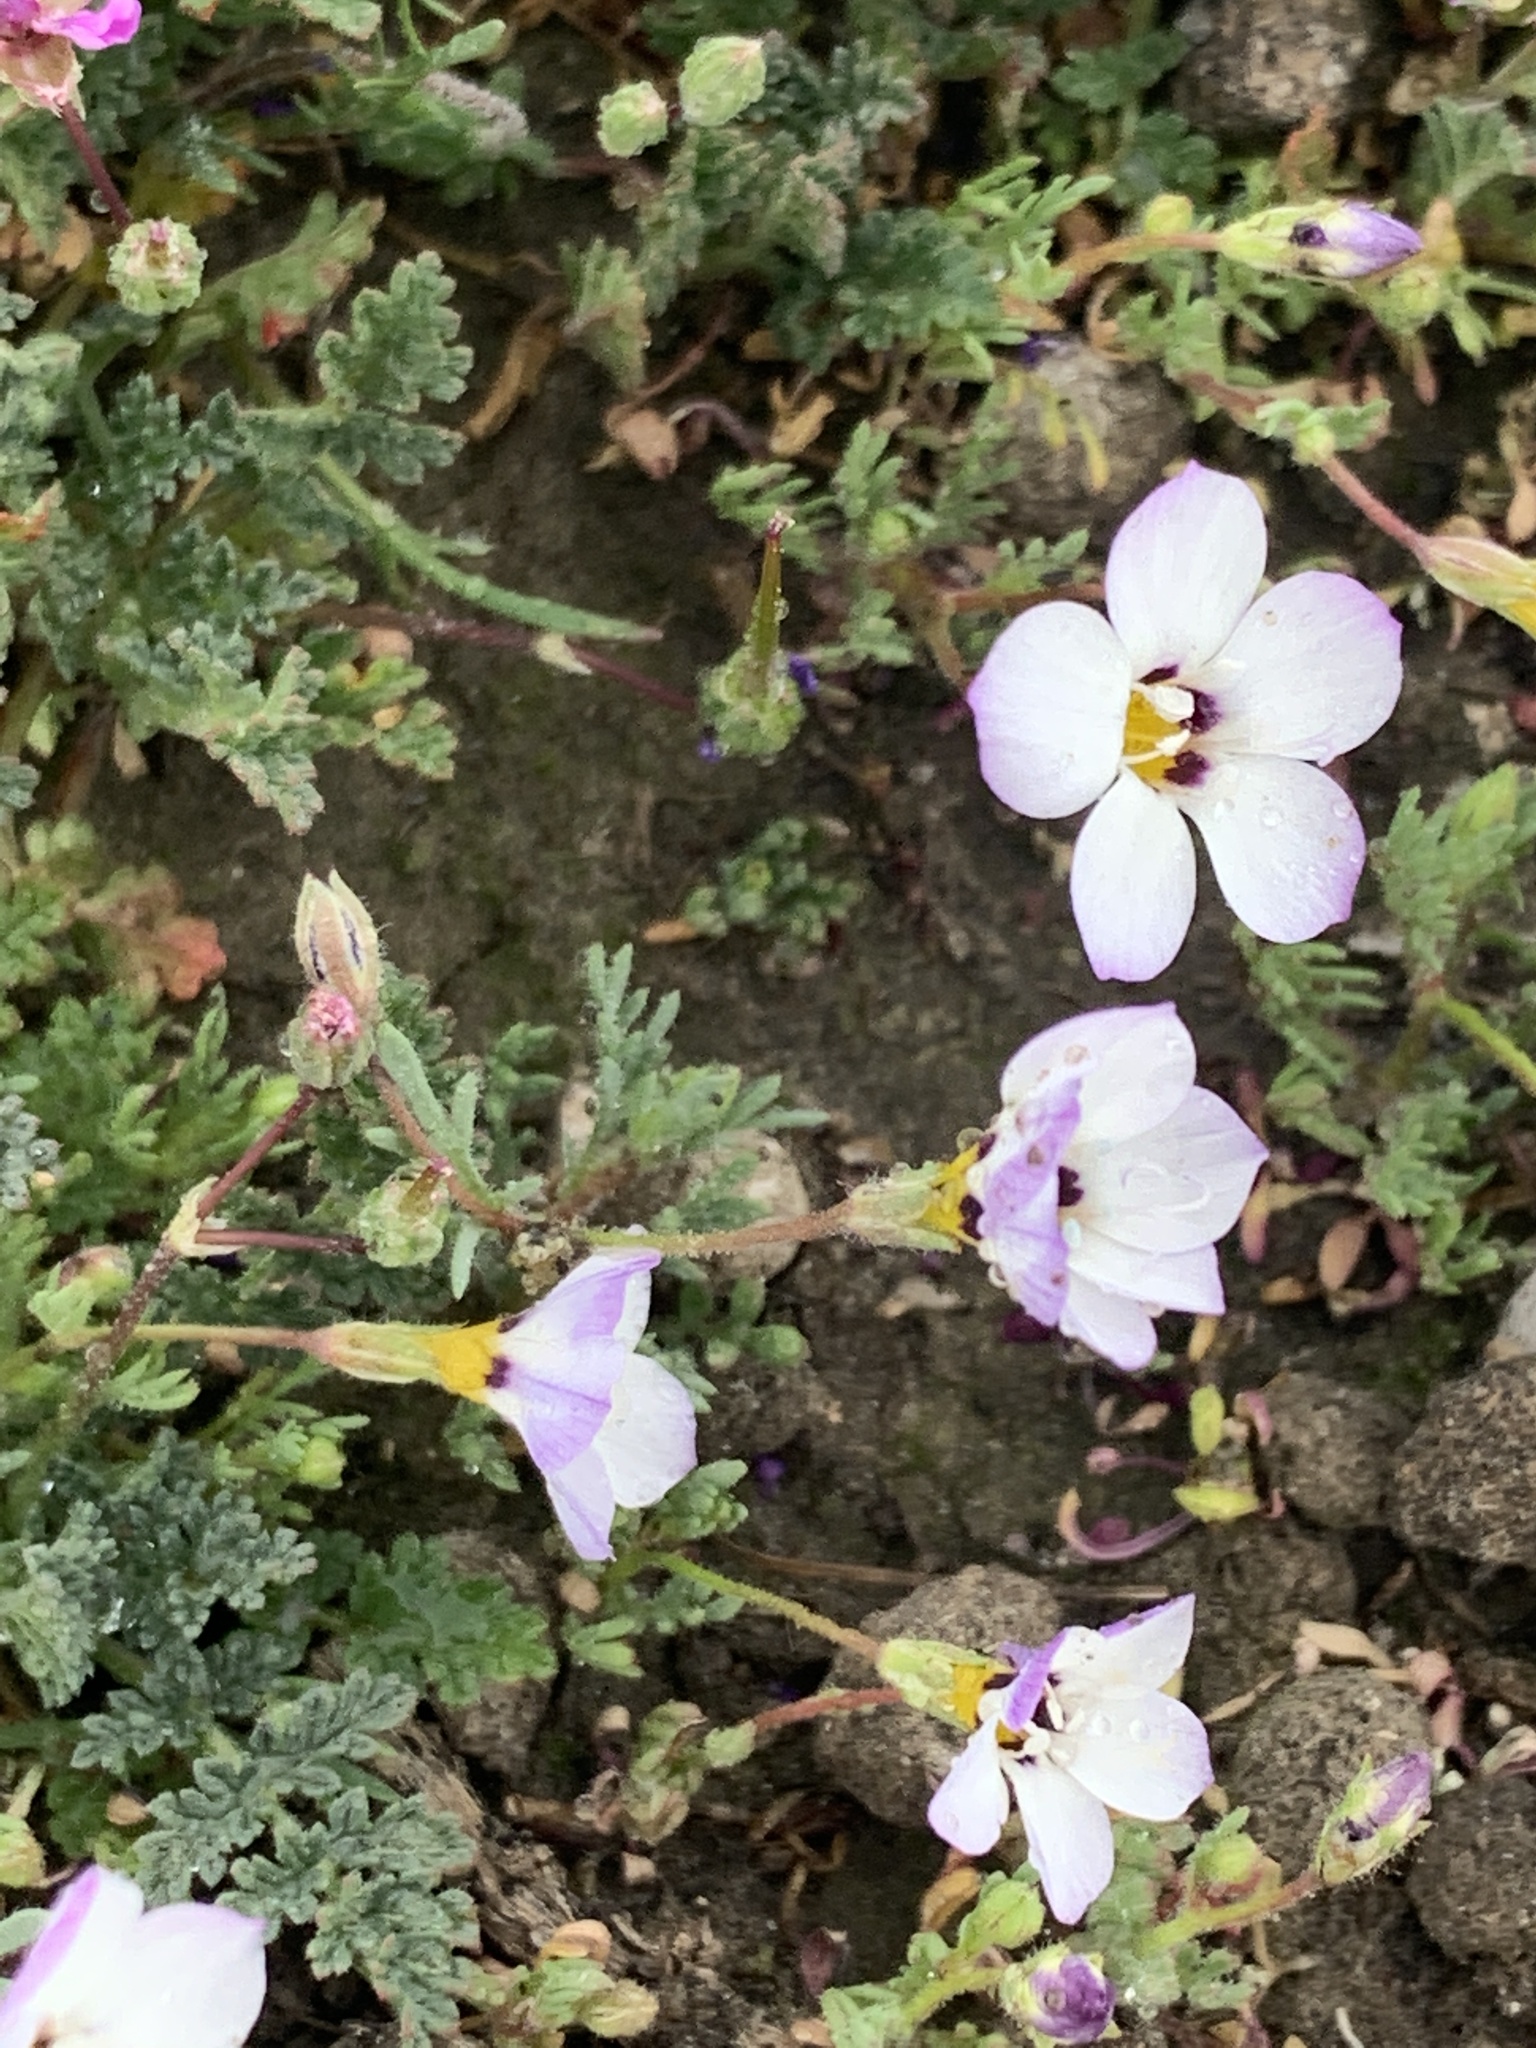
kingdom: Plantae
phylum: Tracheophyta
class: Magnoliopsida
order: Ericales
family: Polemoniaceae
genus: Gilia
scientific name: Gilia tricolor
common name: Bird's-eyes
